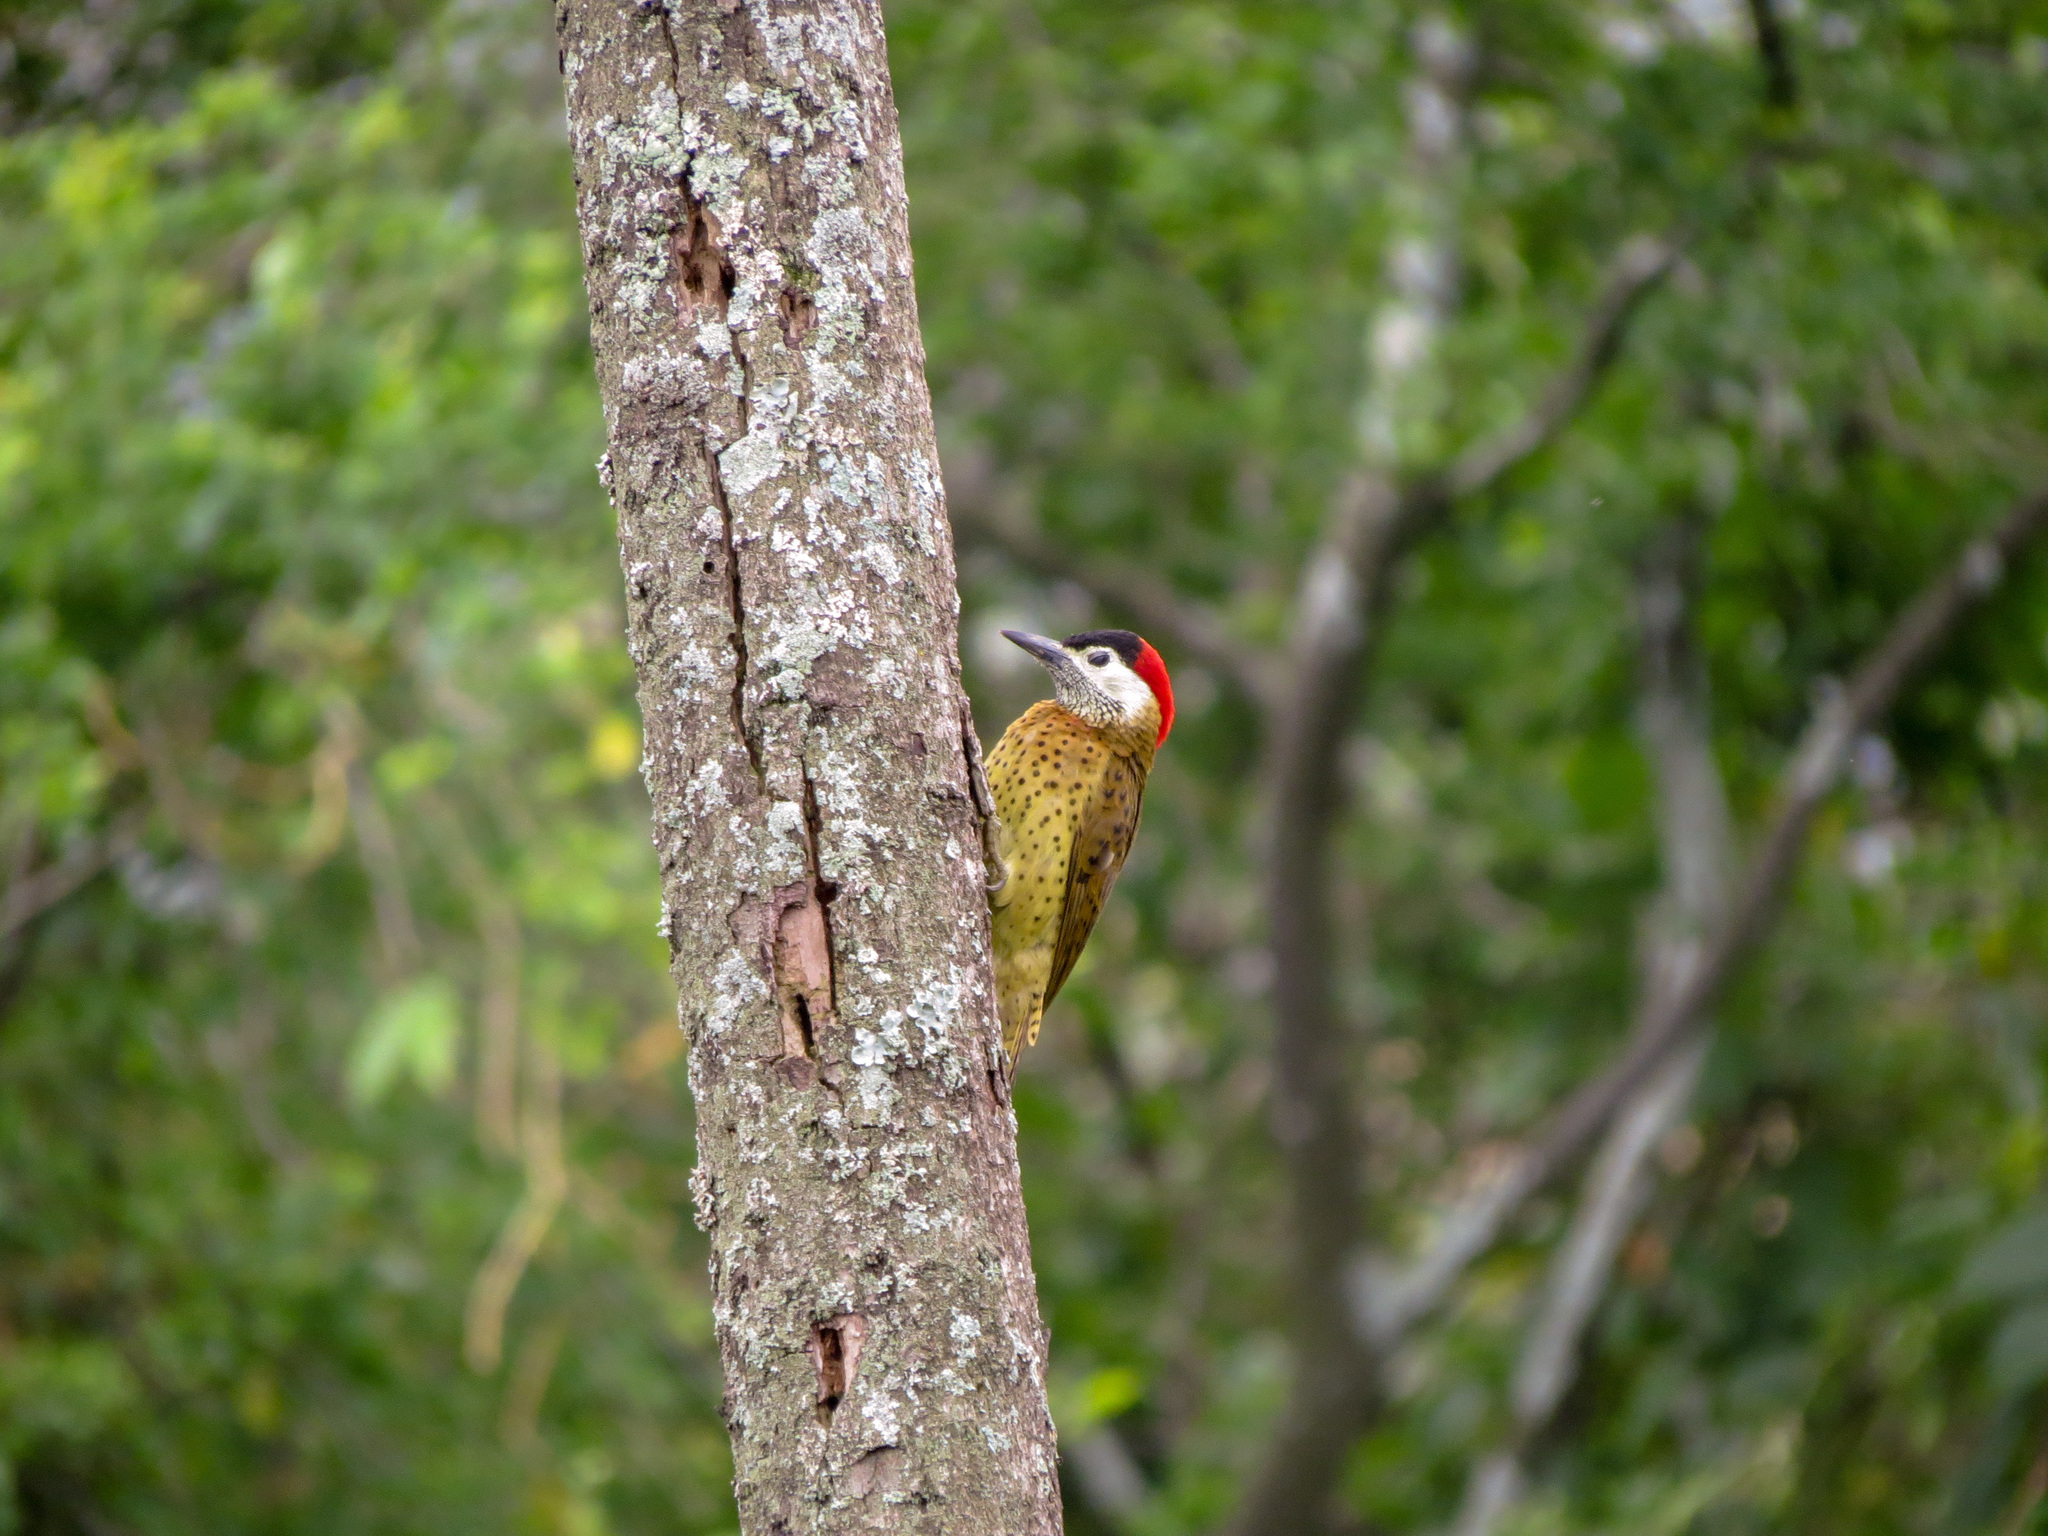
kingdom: Animalia
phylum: Chordata
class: Aves
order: Piciformes
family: Picidae
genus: Colaptes
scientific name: Colaptes punctigula
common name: Spot-breasted woodpecker
